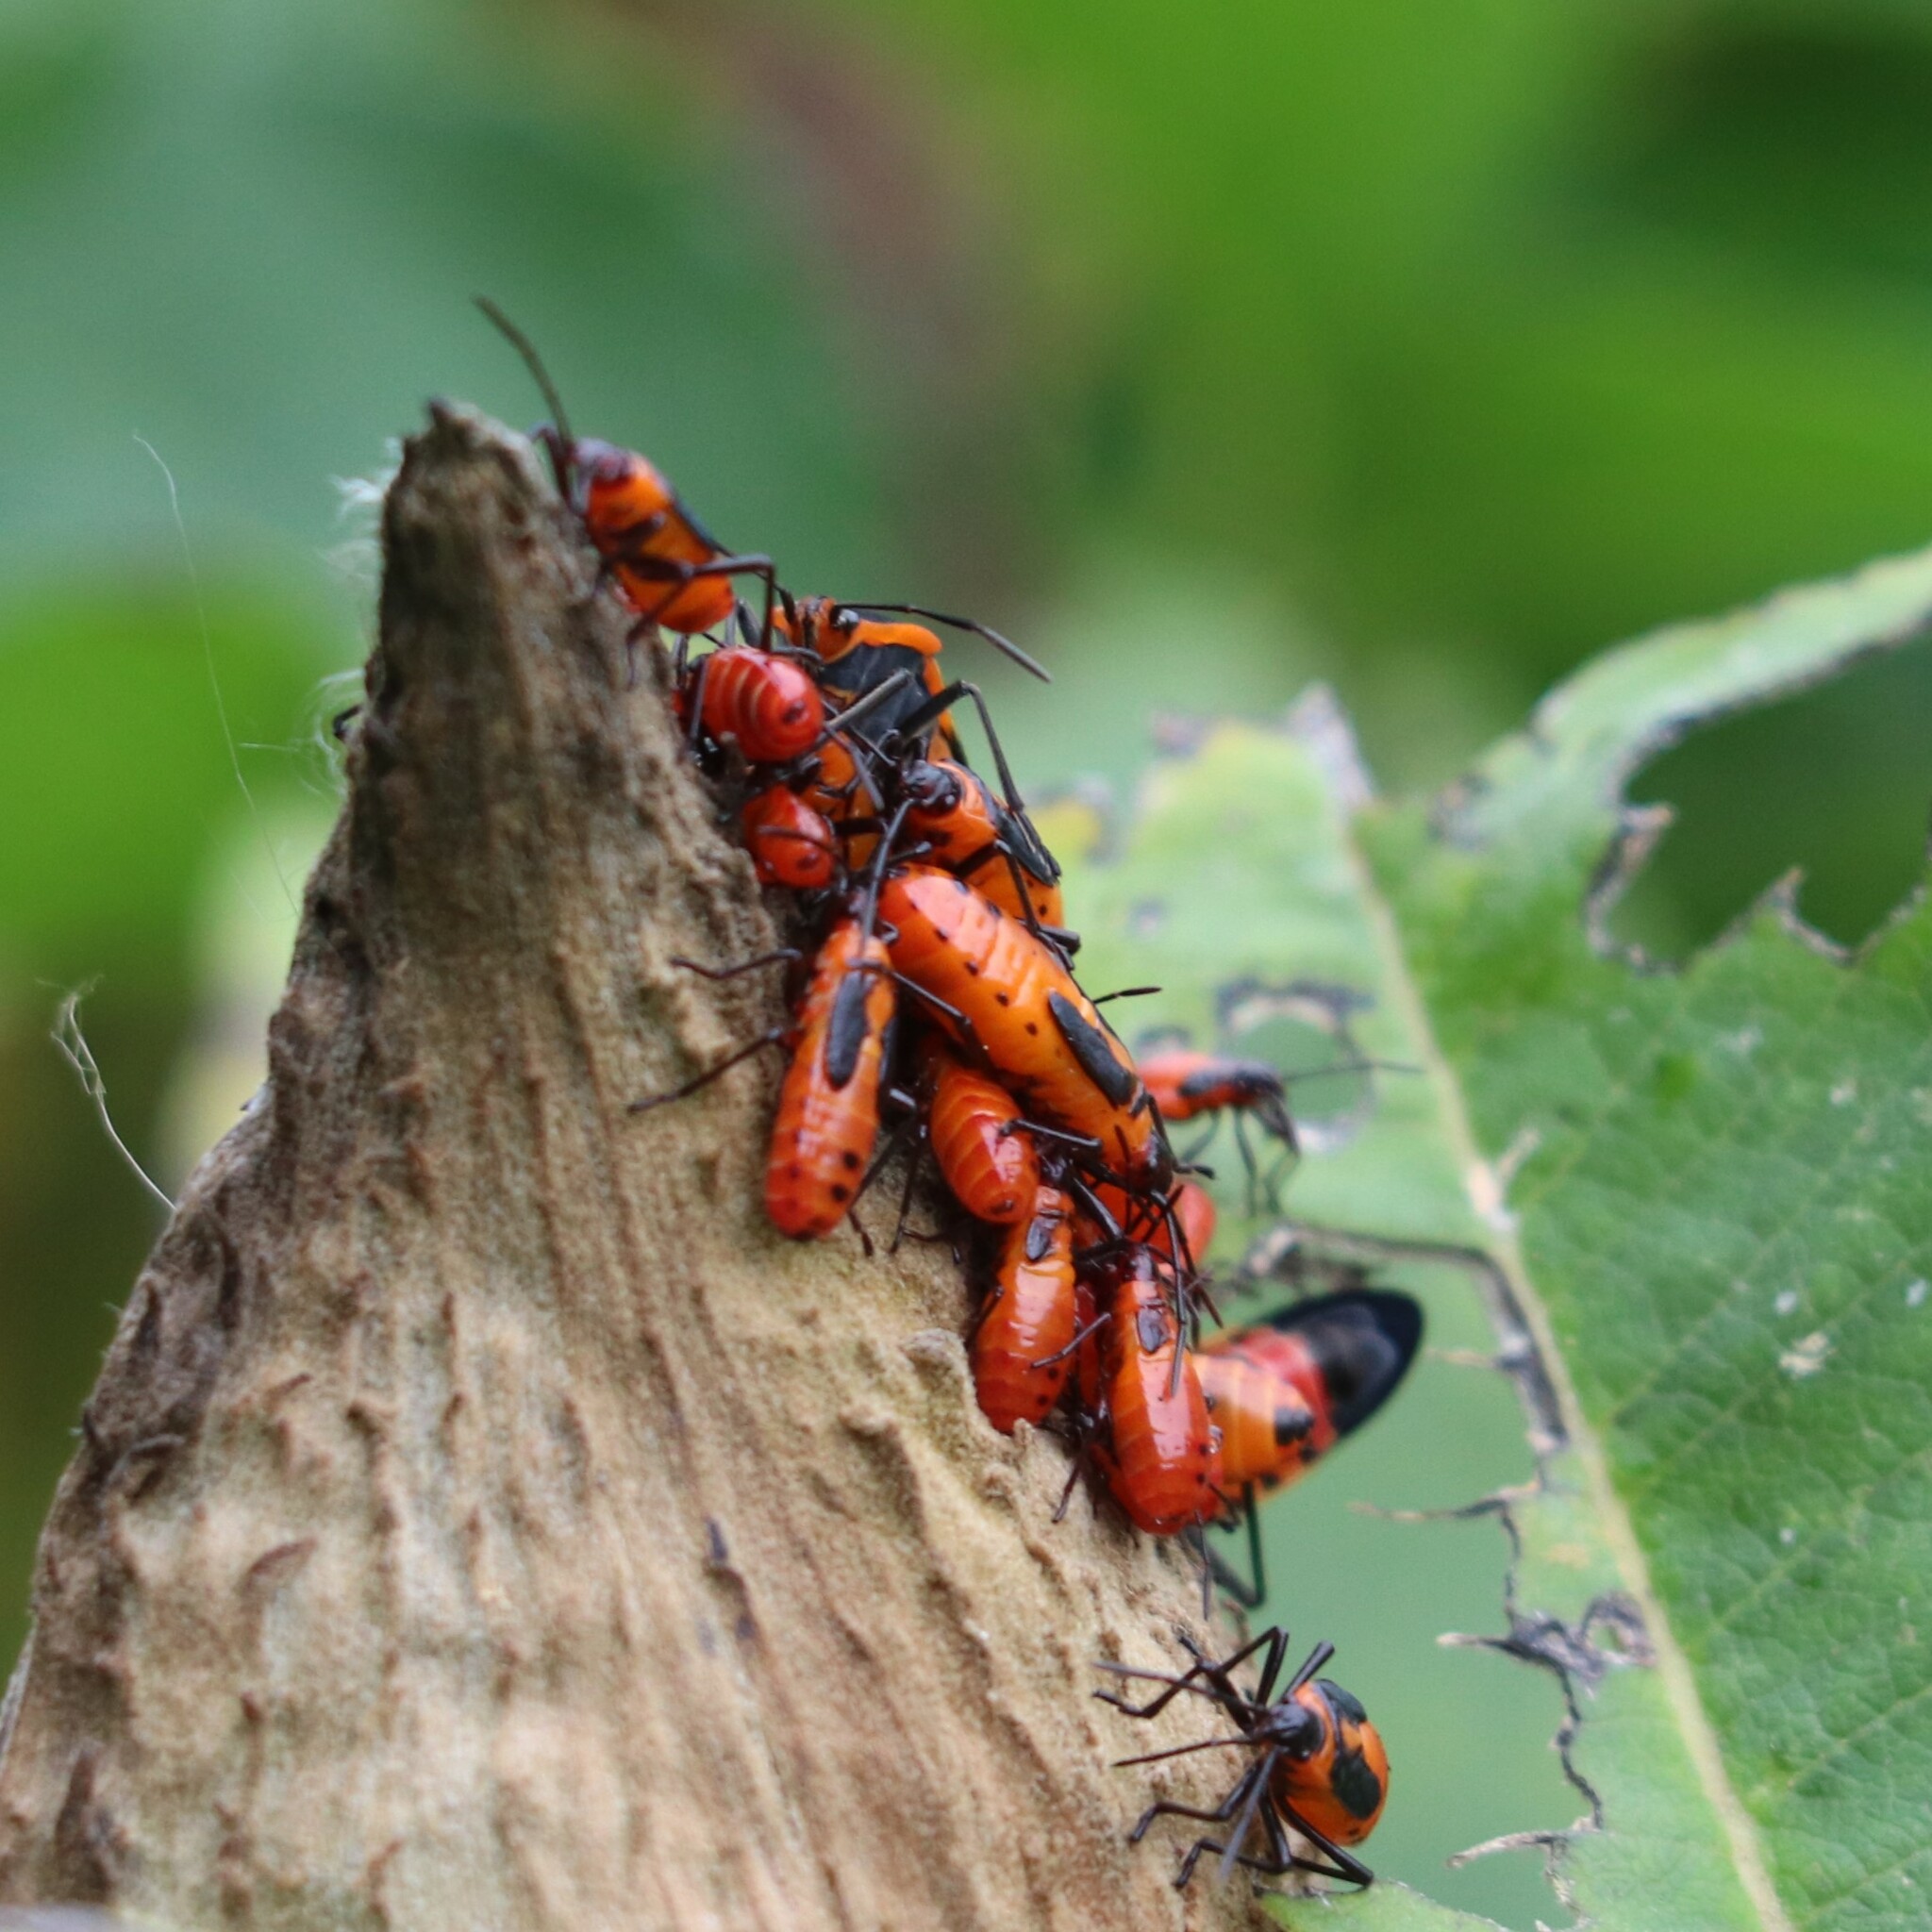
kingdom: Animalia
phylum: Arthropoda
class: Insecta
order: Hemiptera
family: Lygaeidae
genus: Oncopeltus
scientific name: Oncopeltus fasciatus
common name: Large milkweed bug
